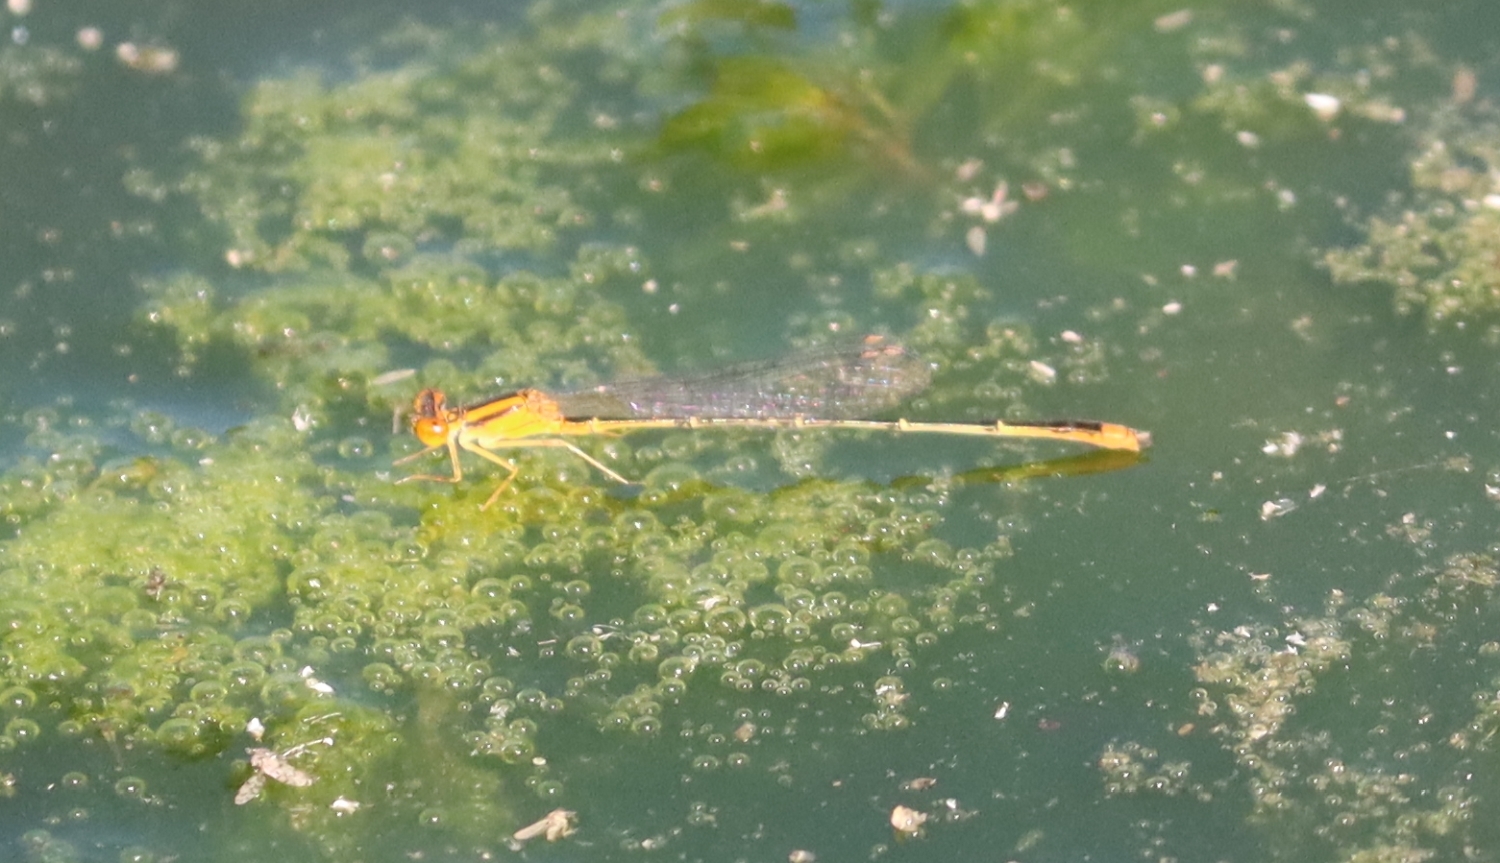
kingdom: Animalia
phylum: Arthropoda
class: Insecta
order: Odonata
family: Coenagrionidae
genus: Enallagma
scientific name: Enallagma signatum
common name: Orange bluet
